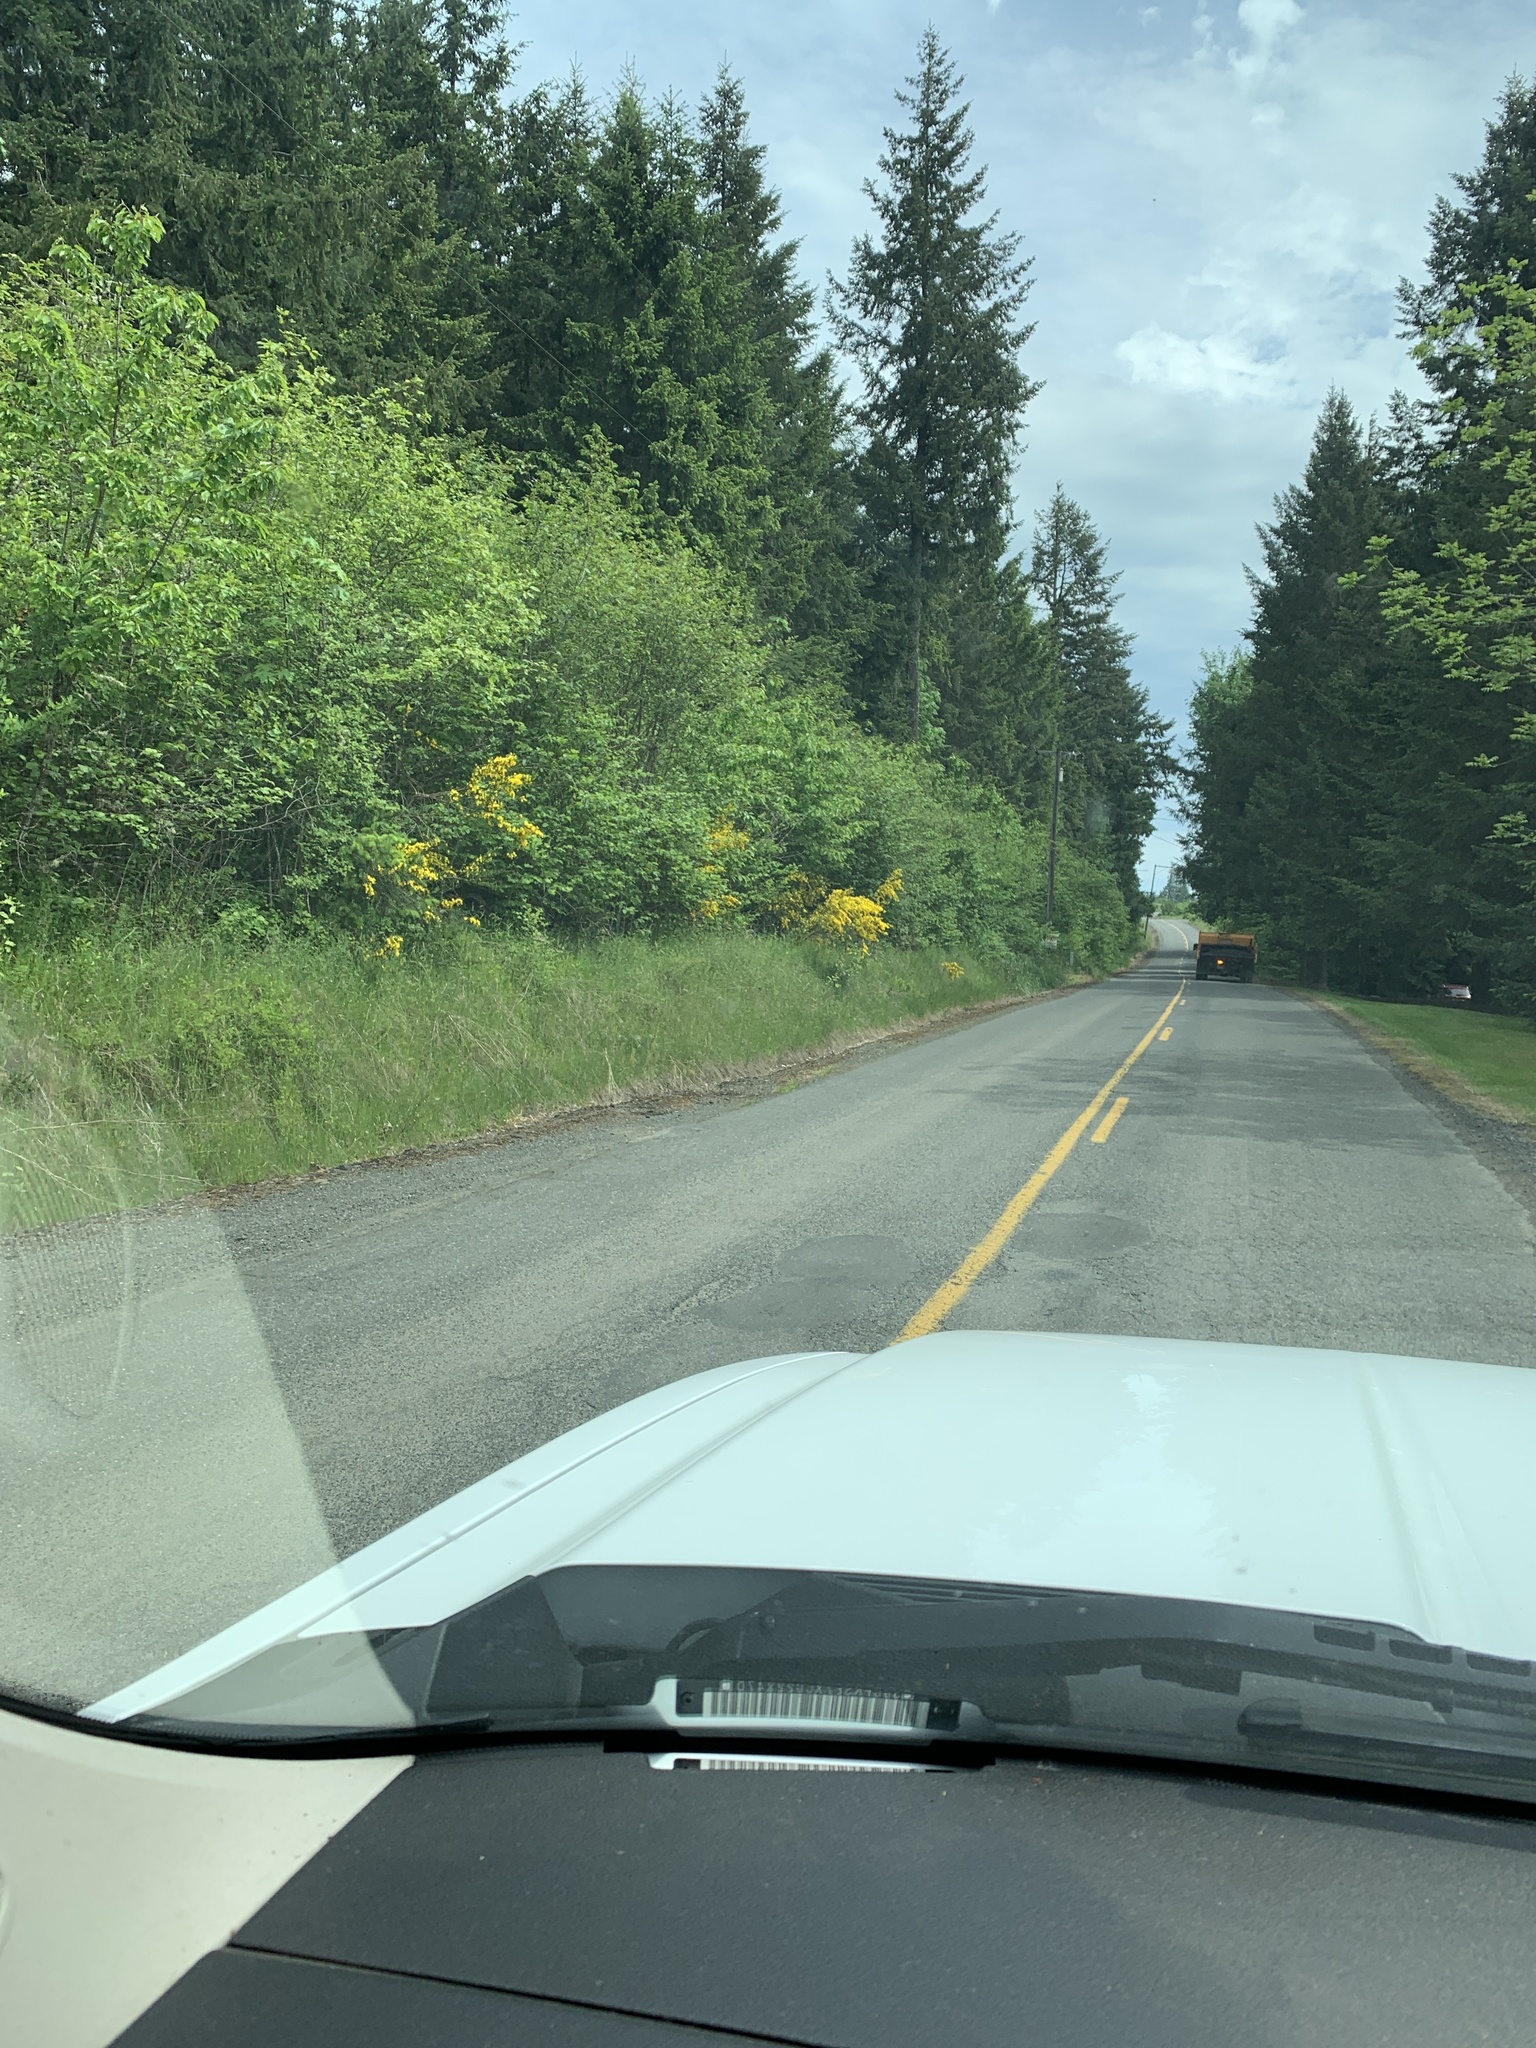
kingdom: Plantae
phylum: Tracheophyta
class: Magnoliopsida
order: Fabales
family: Fabaceae
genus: Cytisus
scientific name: Cytisus scoparius
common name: Scotch broom
